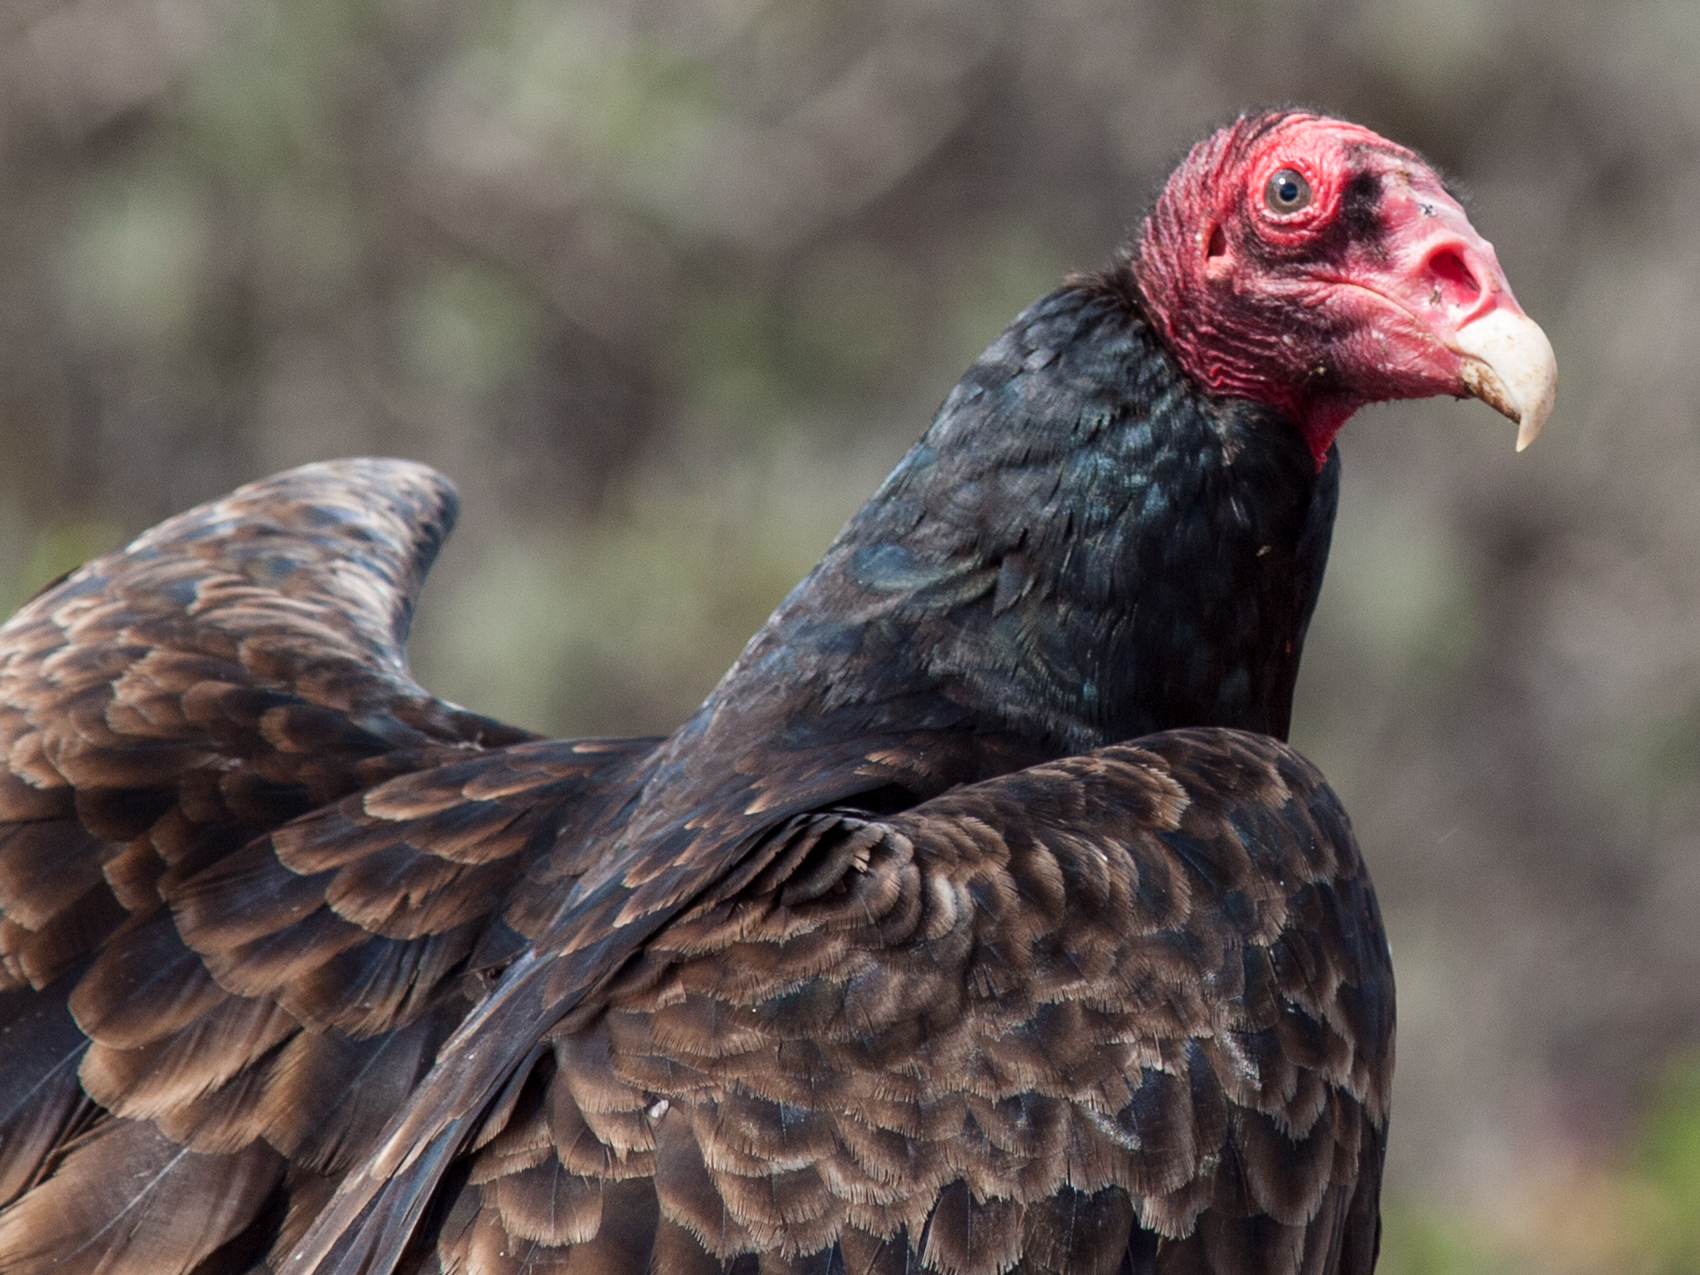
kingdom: Animalia
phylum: Chordata
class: Aves
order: Accipitriformes
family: Cathartidae
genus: Cathartes
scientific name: Cathartes aura
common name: Turkey vulture
